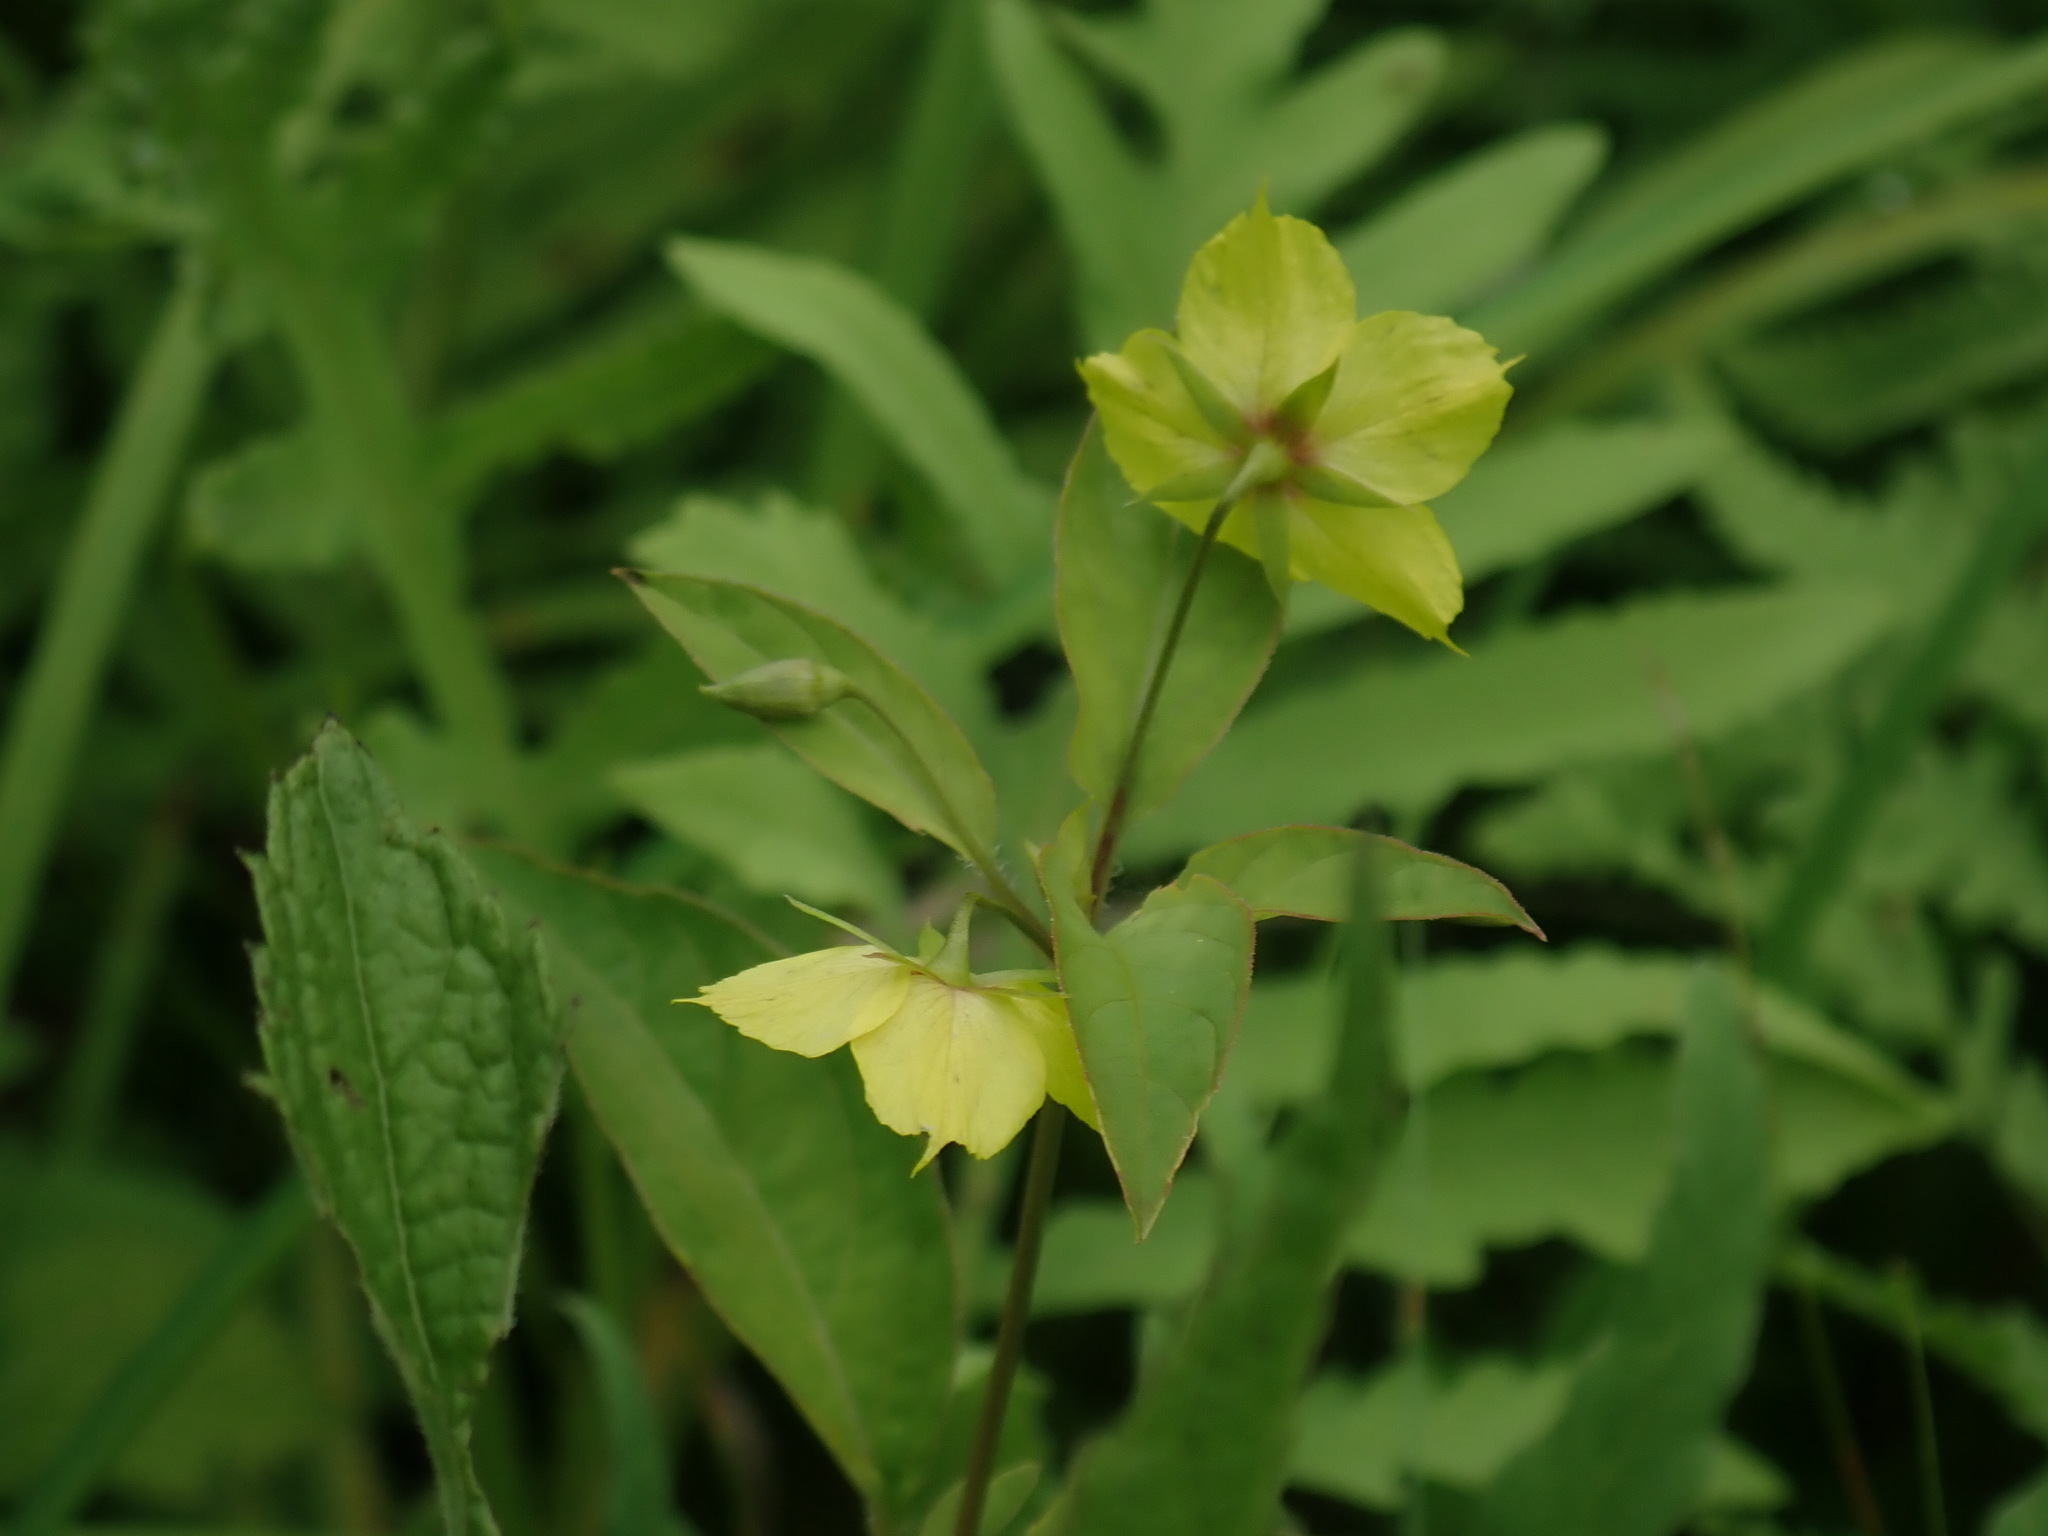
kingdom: Plantae
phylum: Tracheophyta
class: Magnoliopsida
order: Ericales
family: Primulaceae
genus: Lysimachia
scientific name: Lysimachia ciliata
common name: Fringed loosestrife
